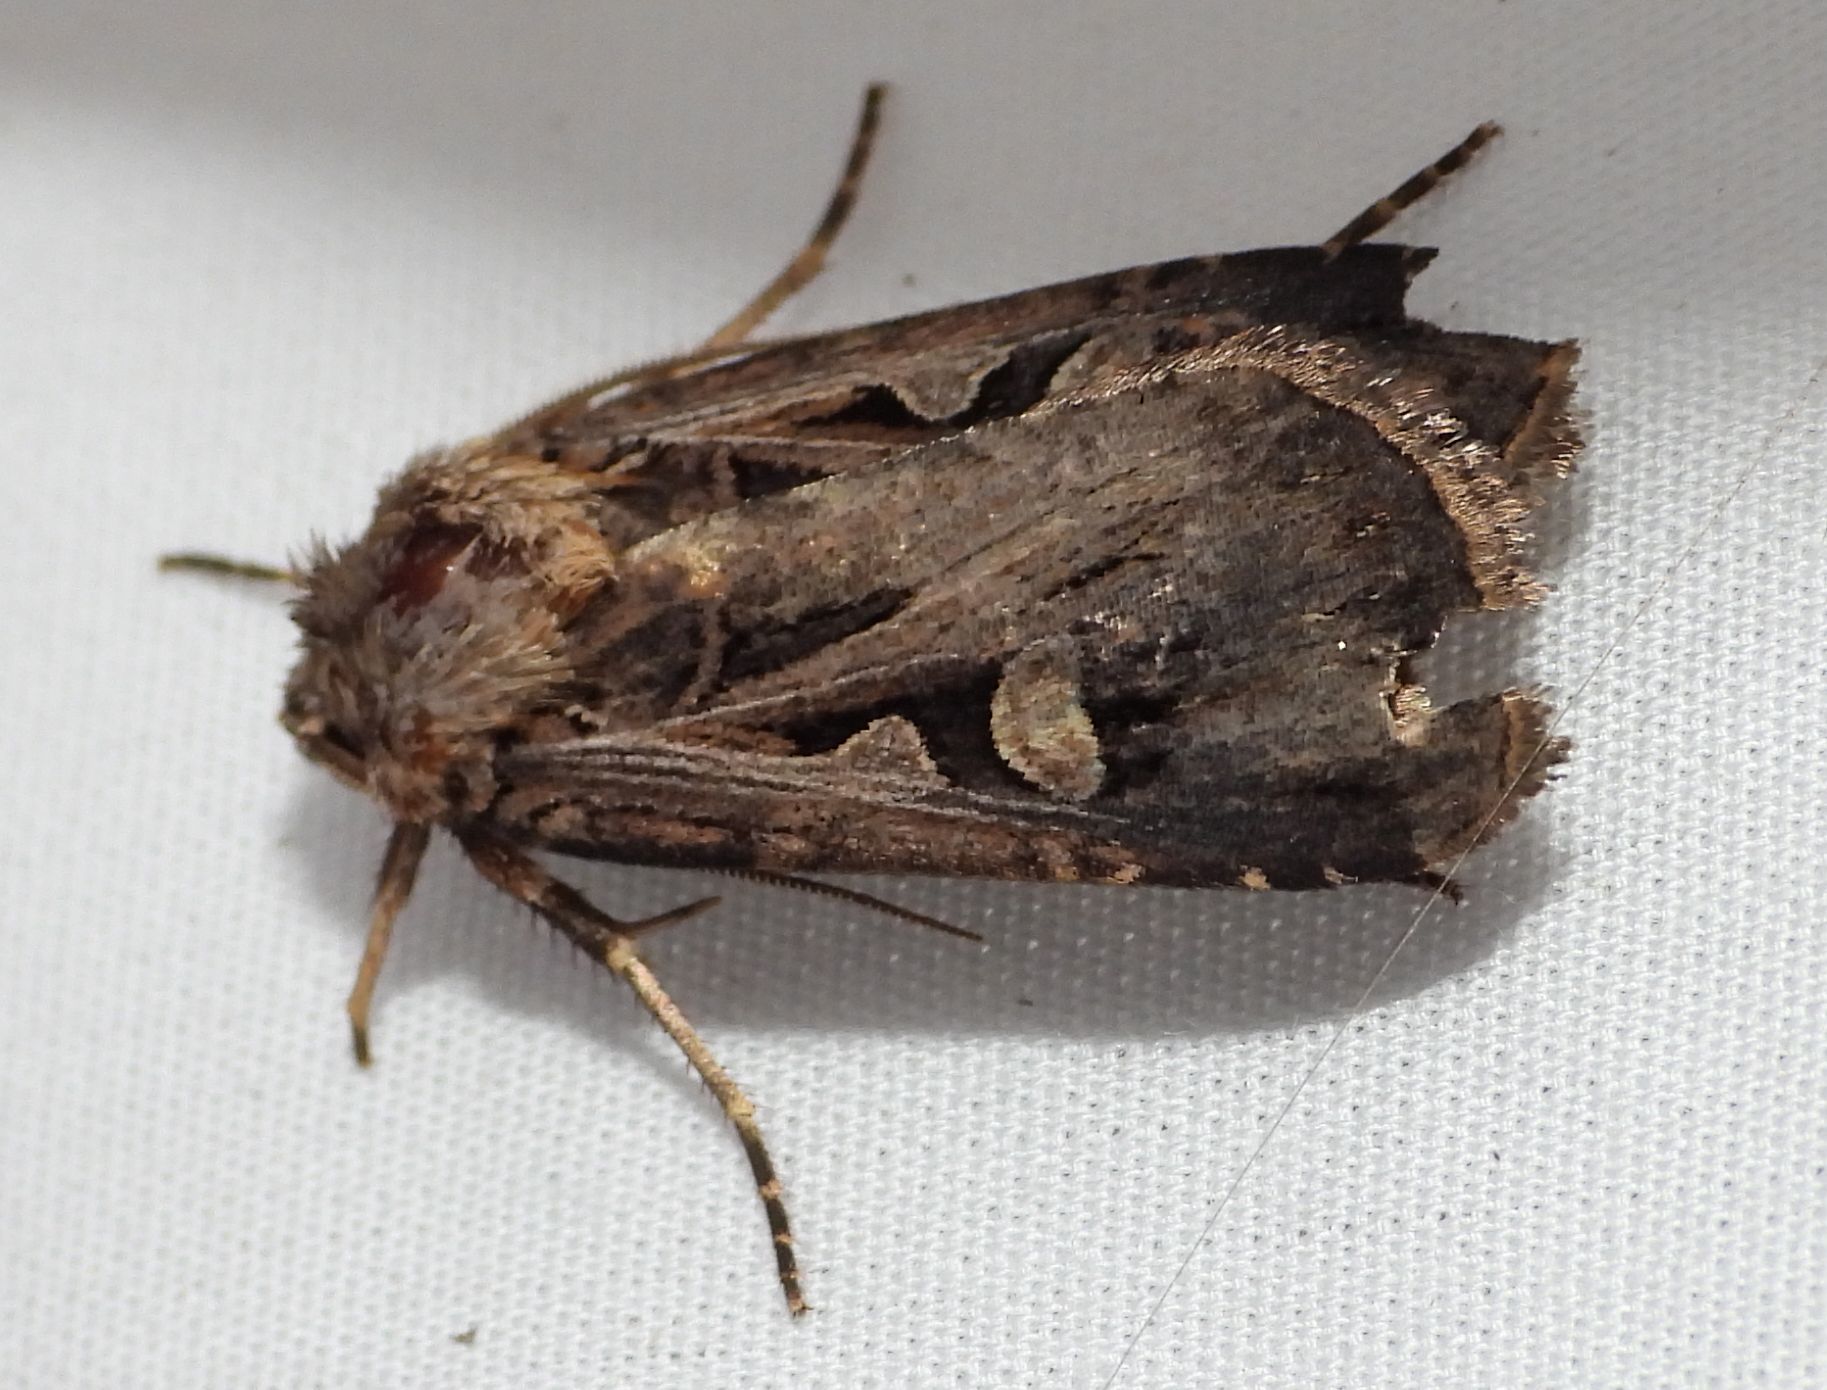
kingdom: Animalia
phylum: Arthropoda
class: Insecta
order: Lepidoptera
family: Noctuidae
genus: Feltia
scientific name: Feltia
